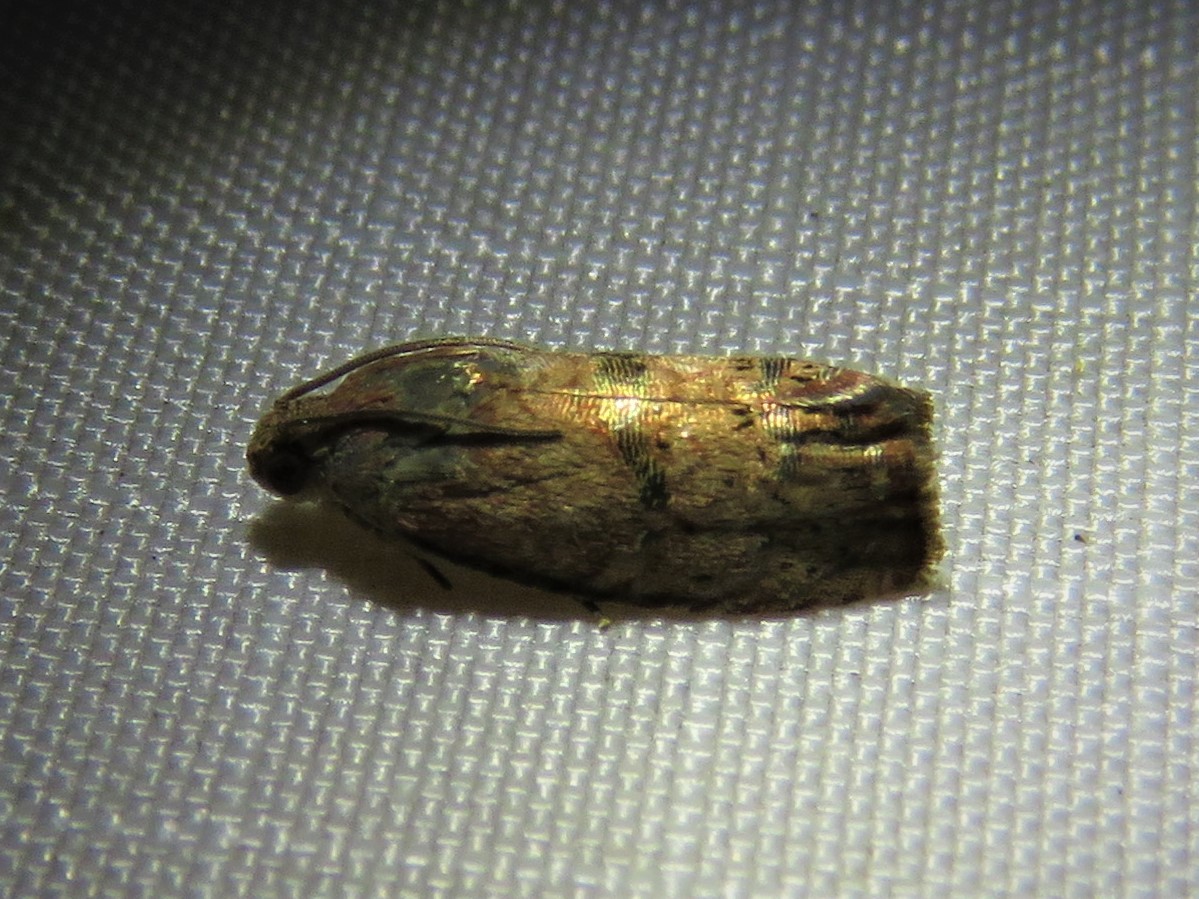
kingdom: Animalia
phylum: Arthropoda
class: Insecta
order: Lepidoptera
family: Tortricidae
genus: Cydia
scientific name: Cydia latiferreana
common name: Filbertworm moth
